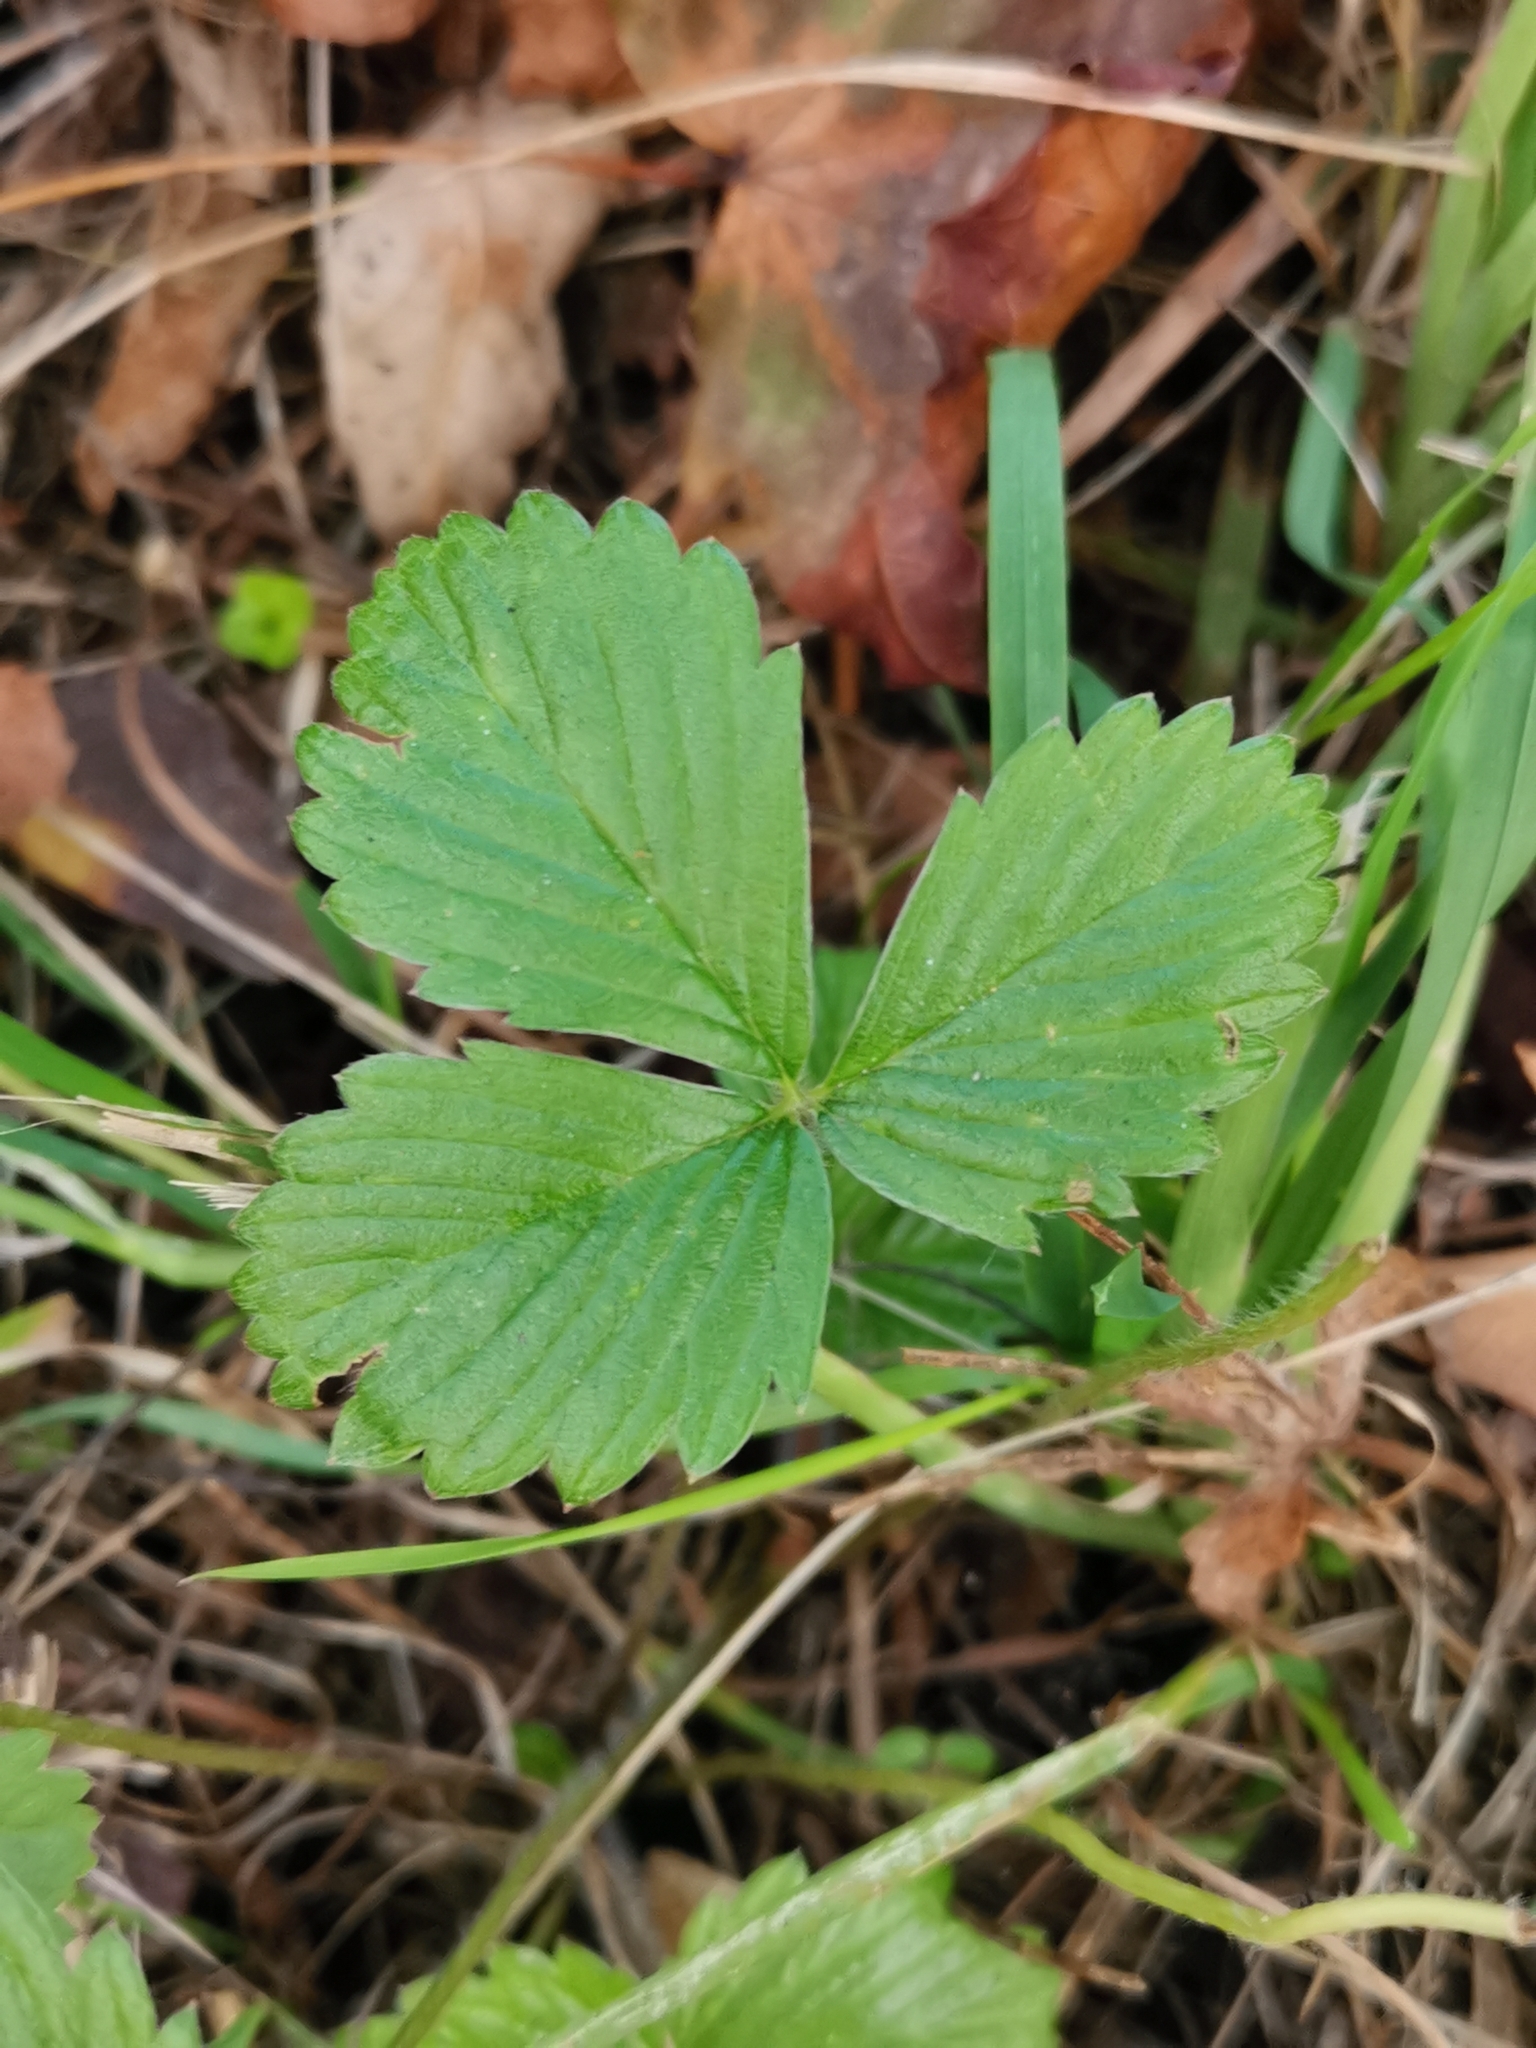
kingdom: Plantae
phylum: Tracheophyta
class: Magnoliopsida
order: Rosales
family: Rosaceae
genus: Fragaria
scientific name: Fragaria vesca
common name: Wild strawberry
